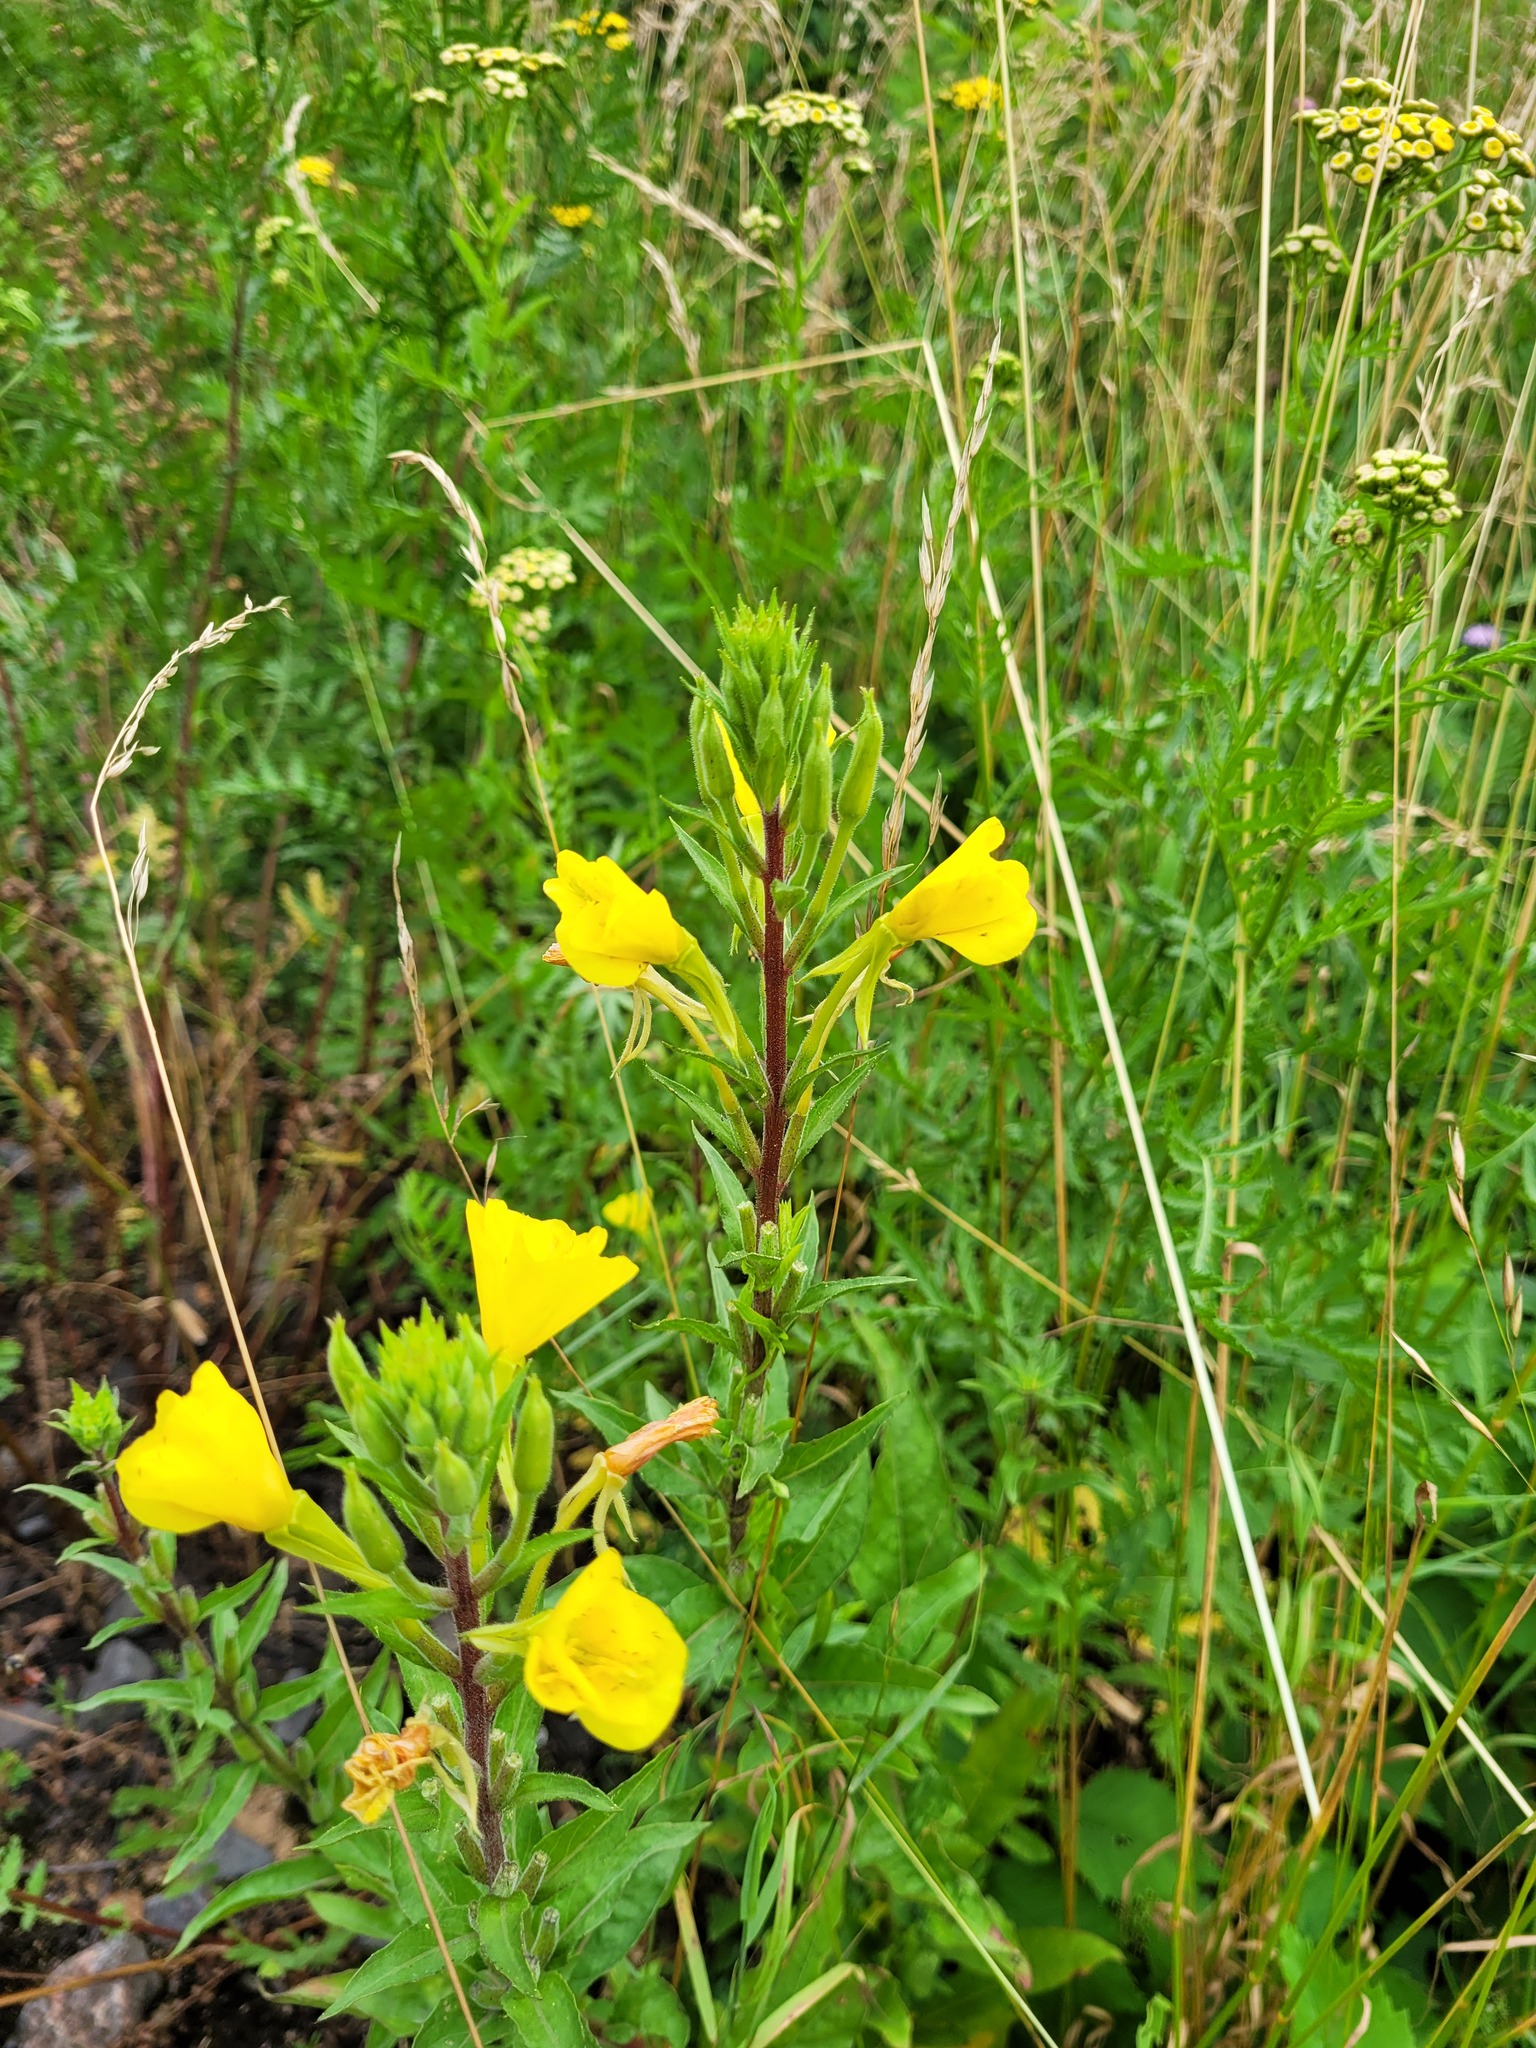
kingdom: Plantae
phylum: Tracheophyta
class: Magnoliopsida
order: Myrtales
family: Onagraceae
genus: Oenothera
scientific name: Oenothera rubricaulis
